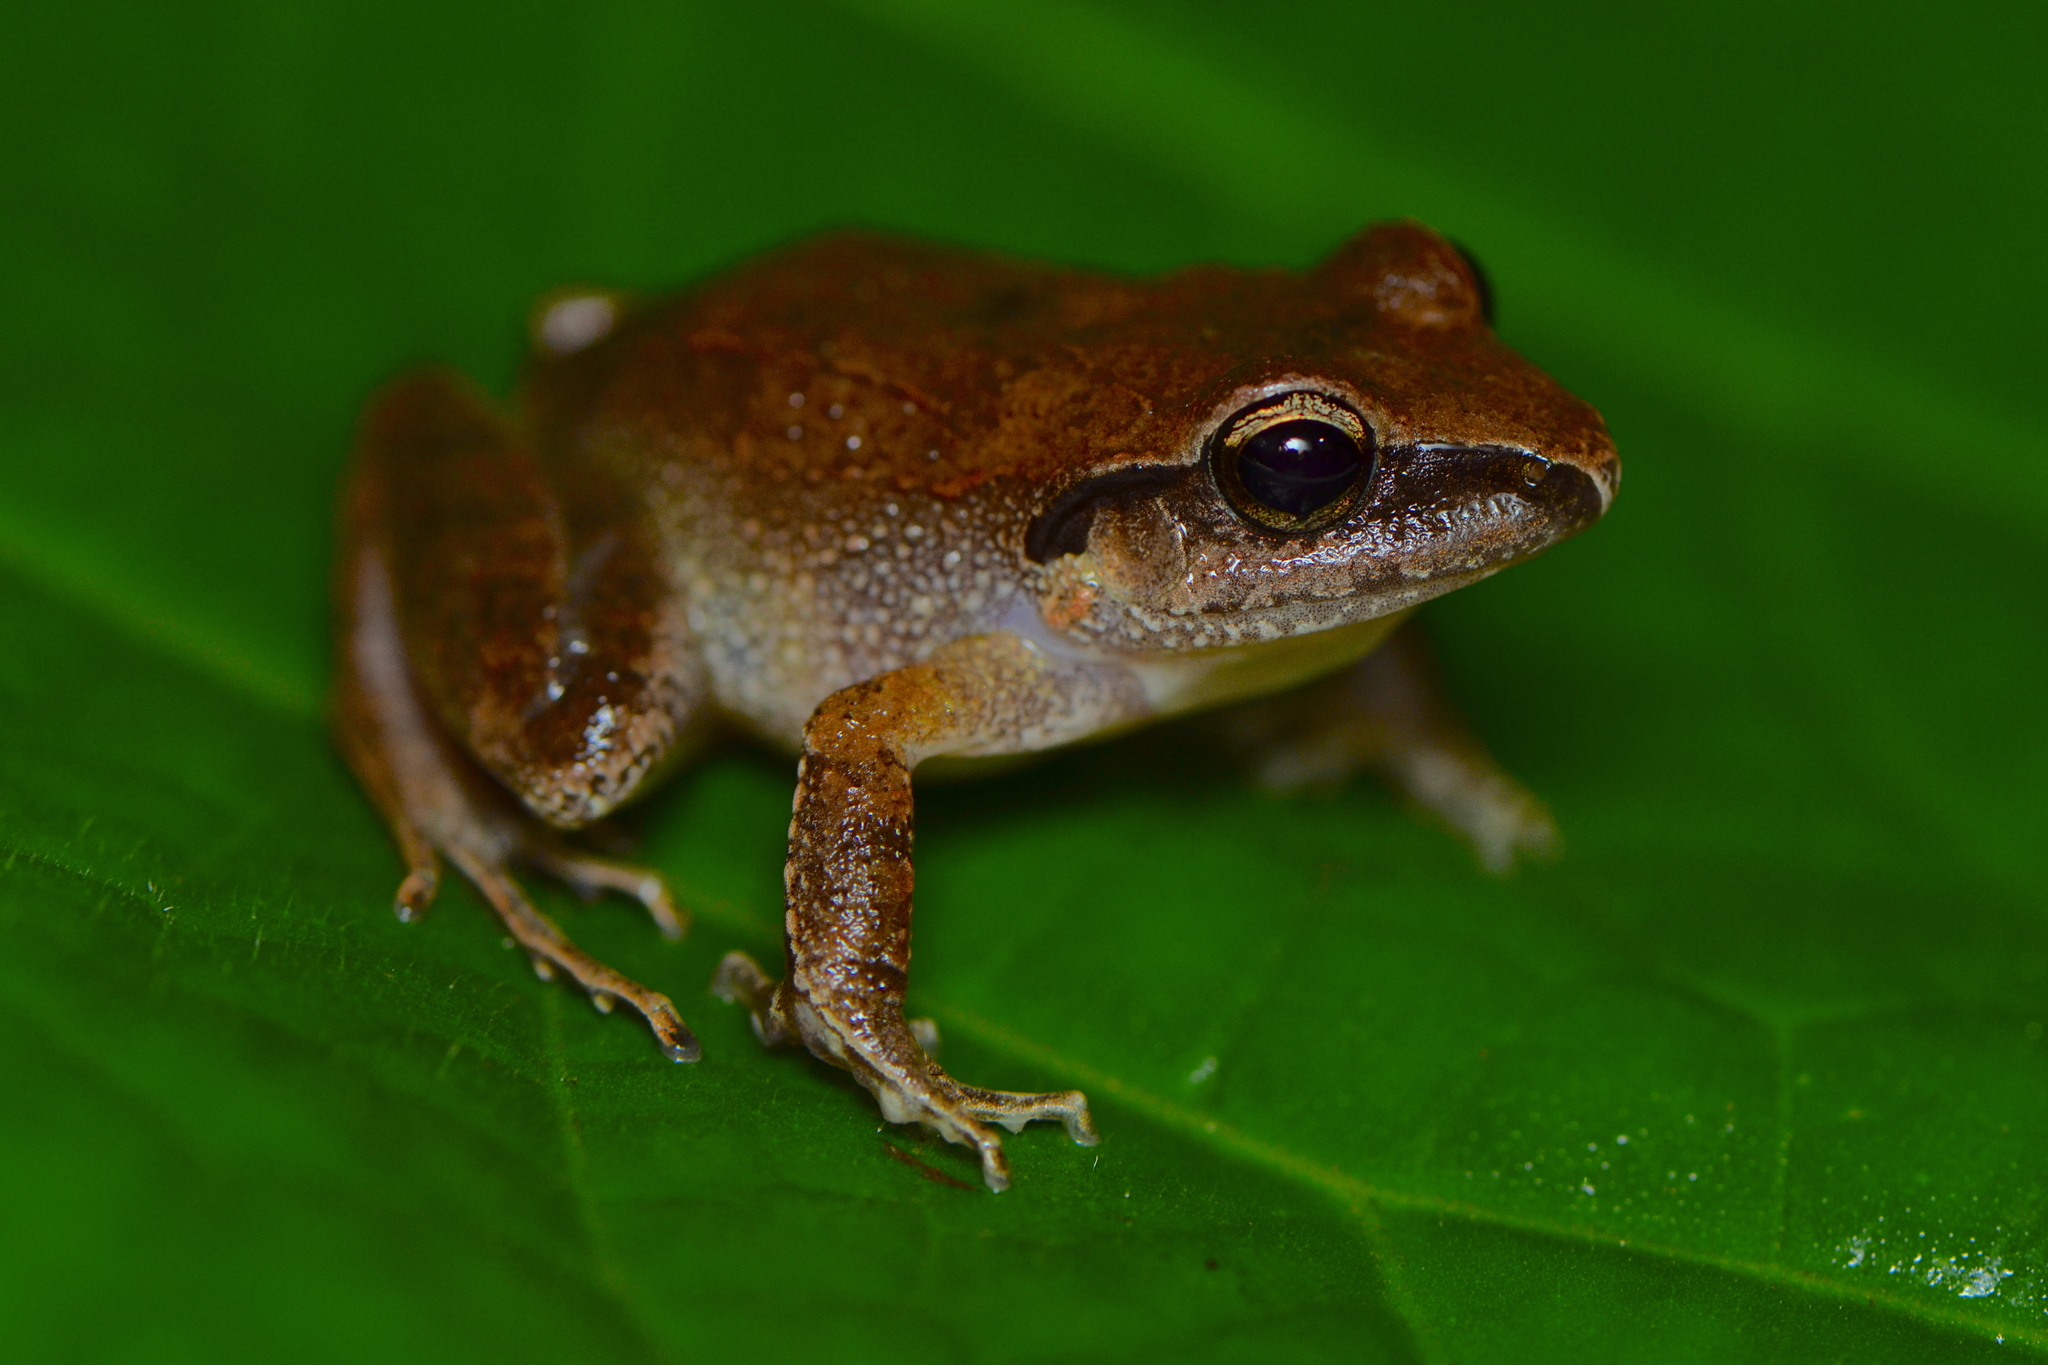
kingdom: Animalia
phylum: Chordata
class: Amphibia
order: Anura
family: Craugastoridae
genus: Craugastor
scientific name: Craugastor rhodopis
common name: Polymorphic robber frog
